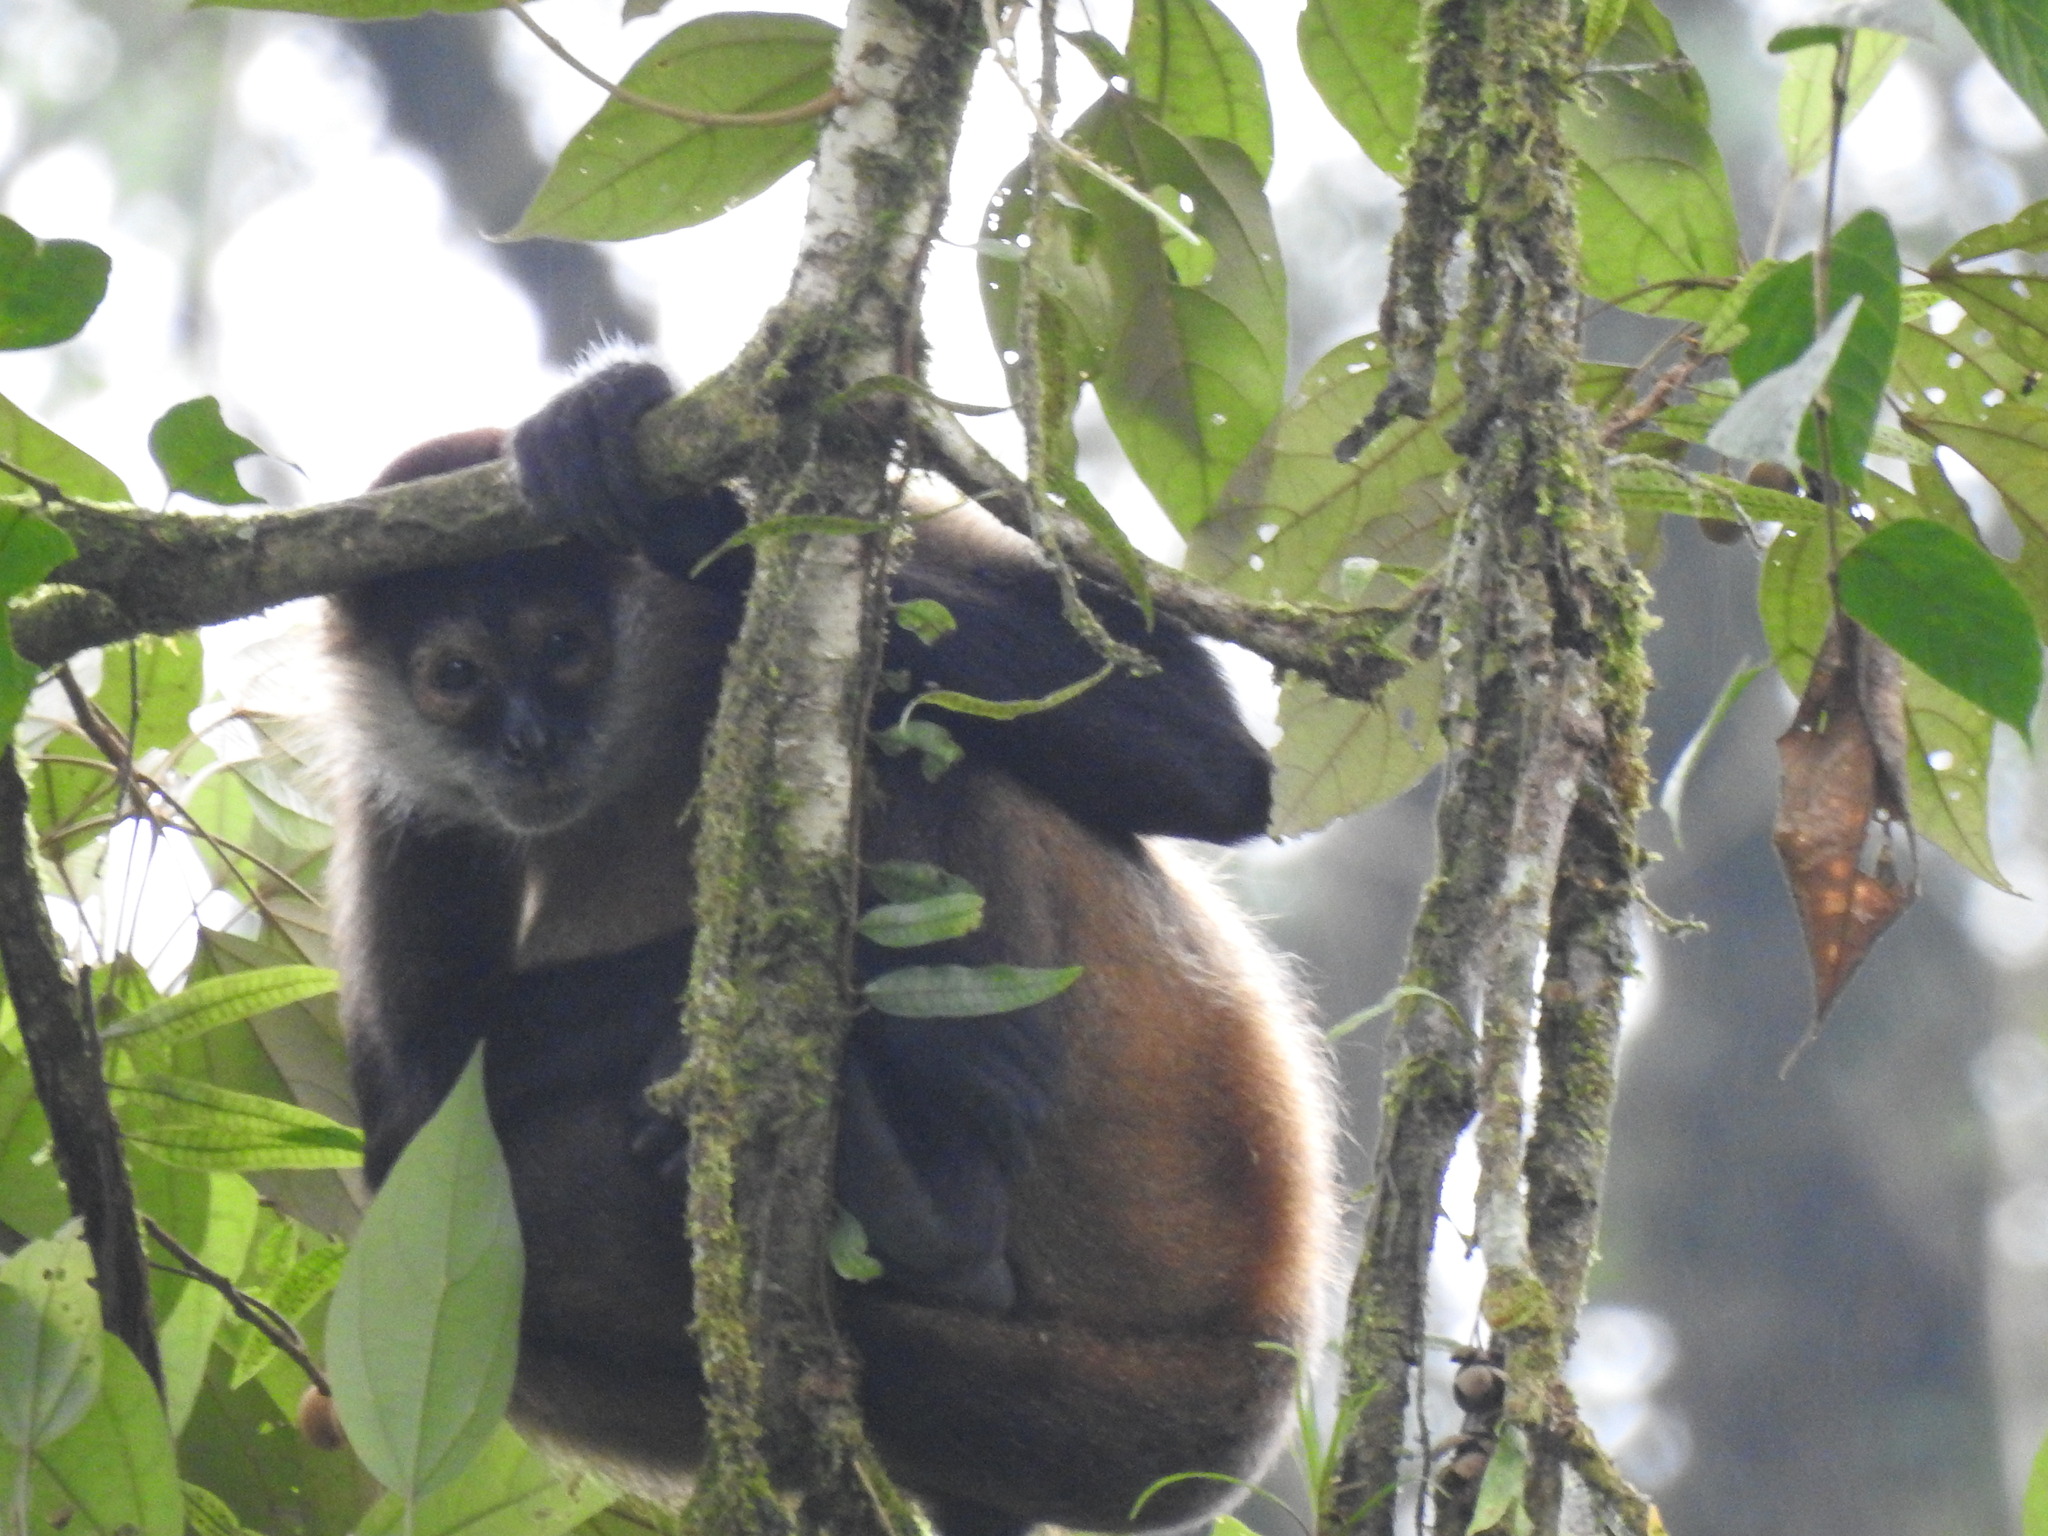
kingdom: Animalia
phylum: Chordata
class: Mammalia
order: Primates
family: Atelidae
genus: Ateles
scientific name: Ateles geoffroyi
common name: Black-handed spider monkey
